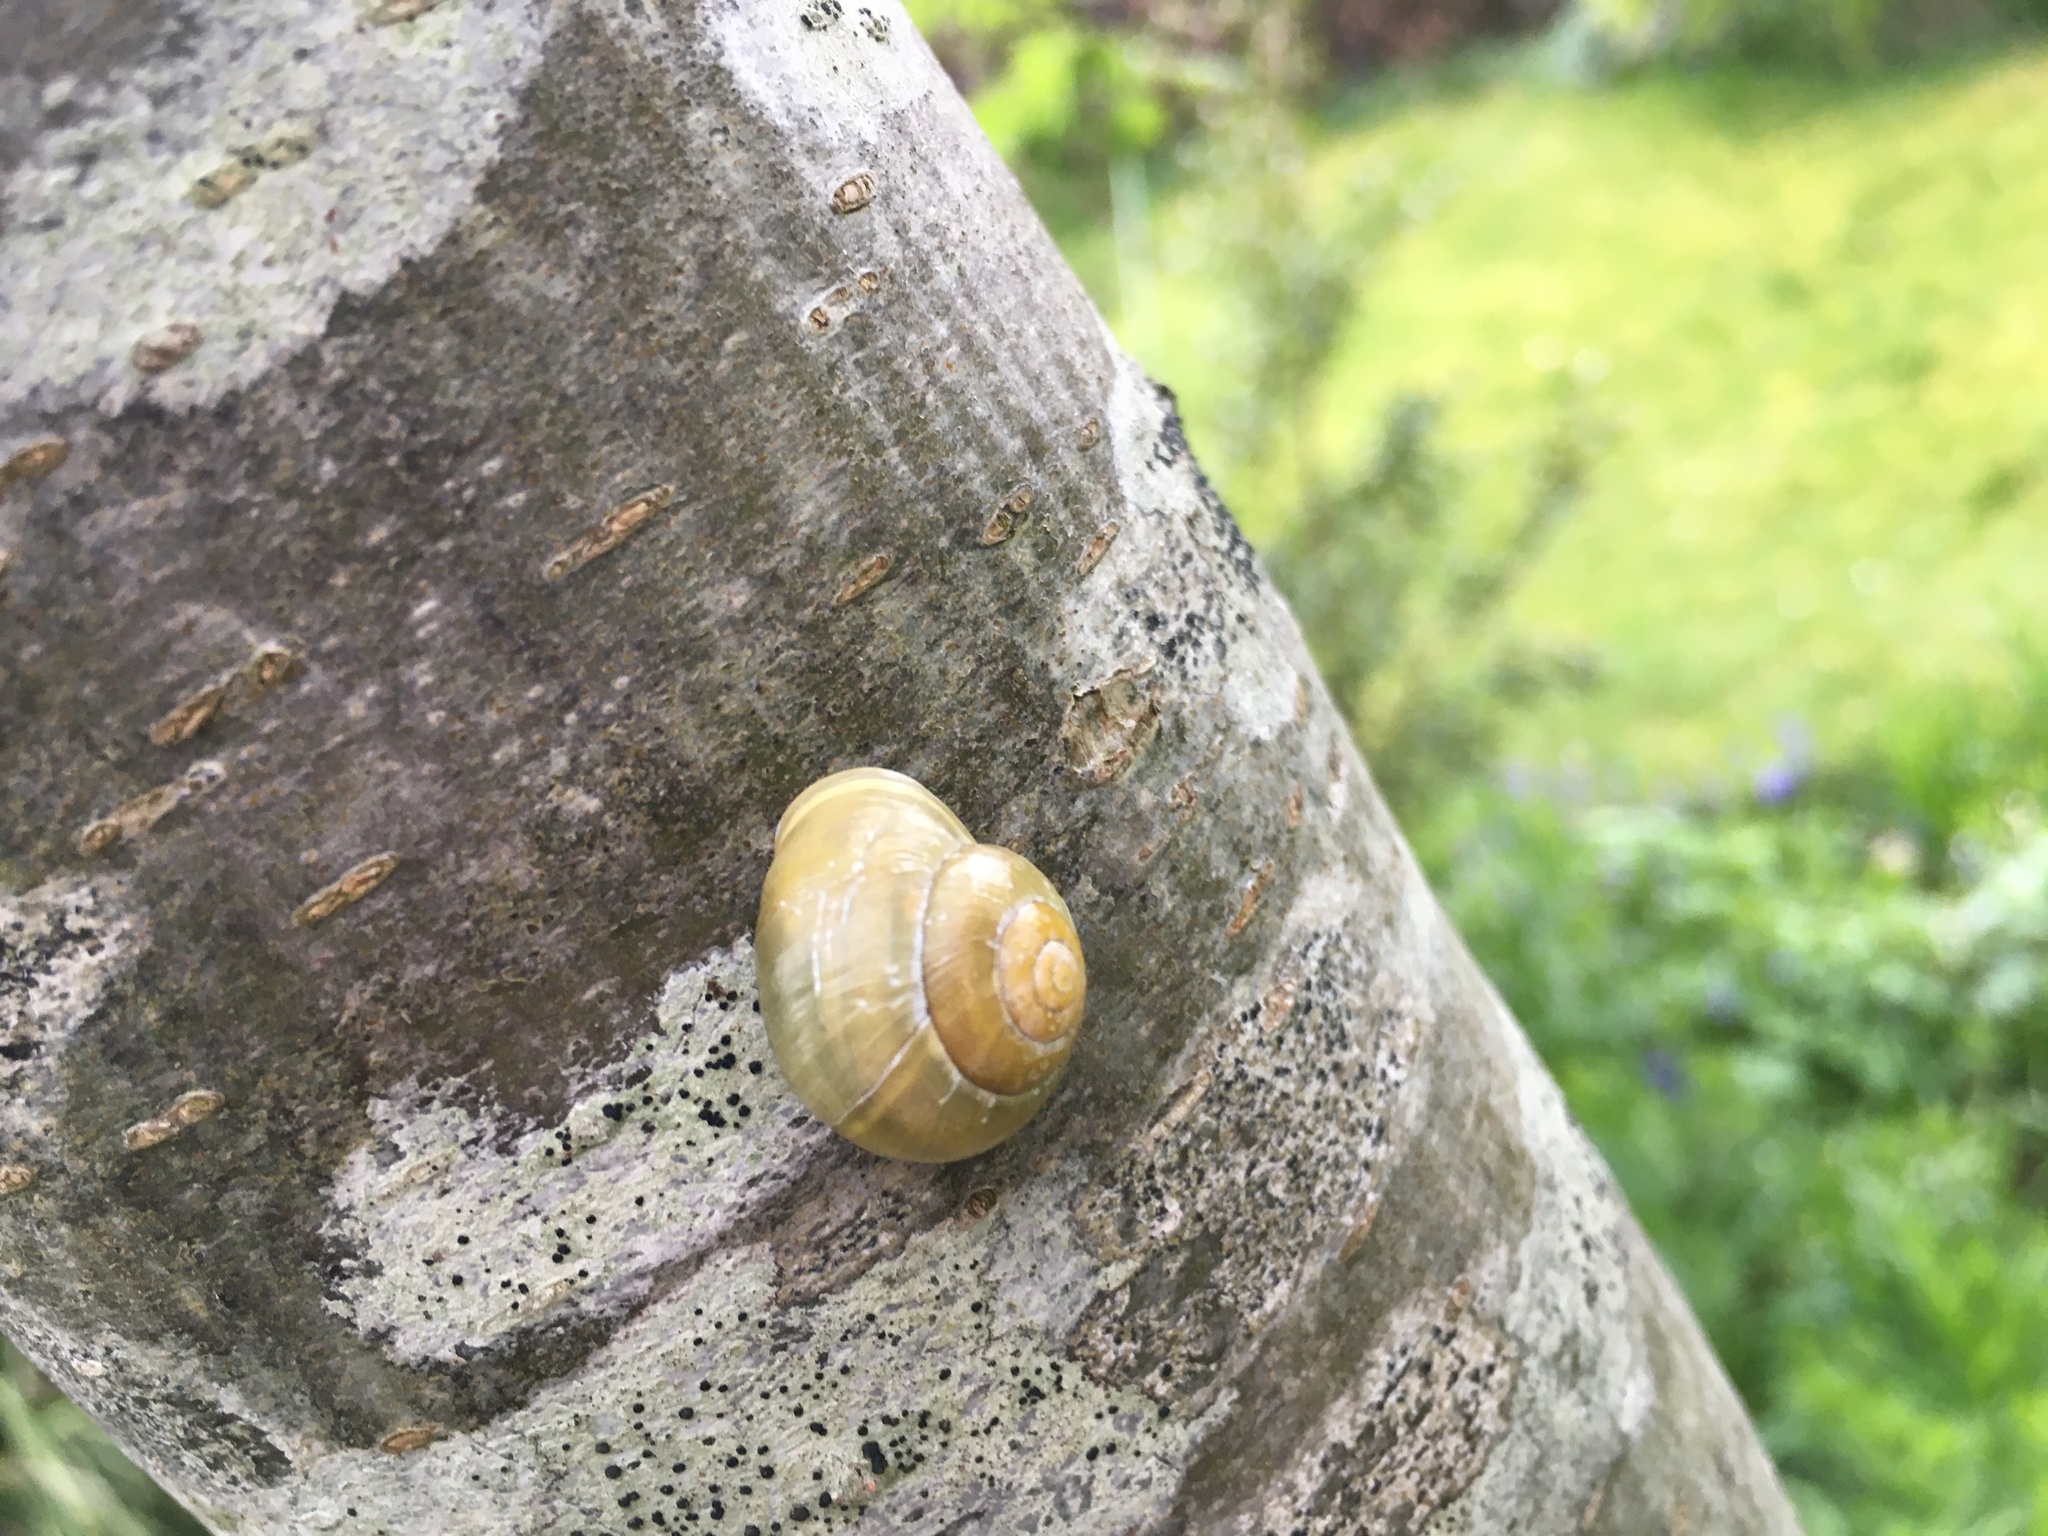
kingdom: Animalia
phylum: Mollusca
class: Gastropoda
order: Stylommatophora
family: Helicidae
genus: Cepaea
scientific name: Cepaea hortensis
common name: White-lip gardensnail
